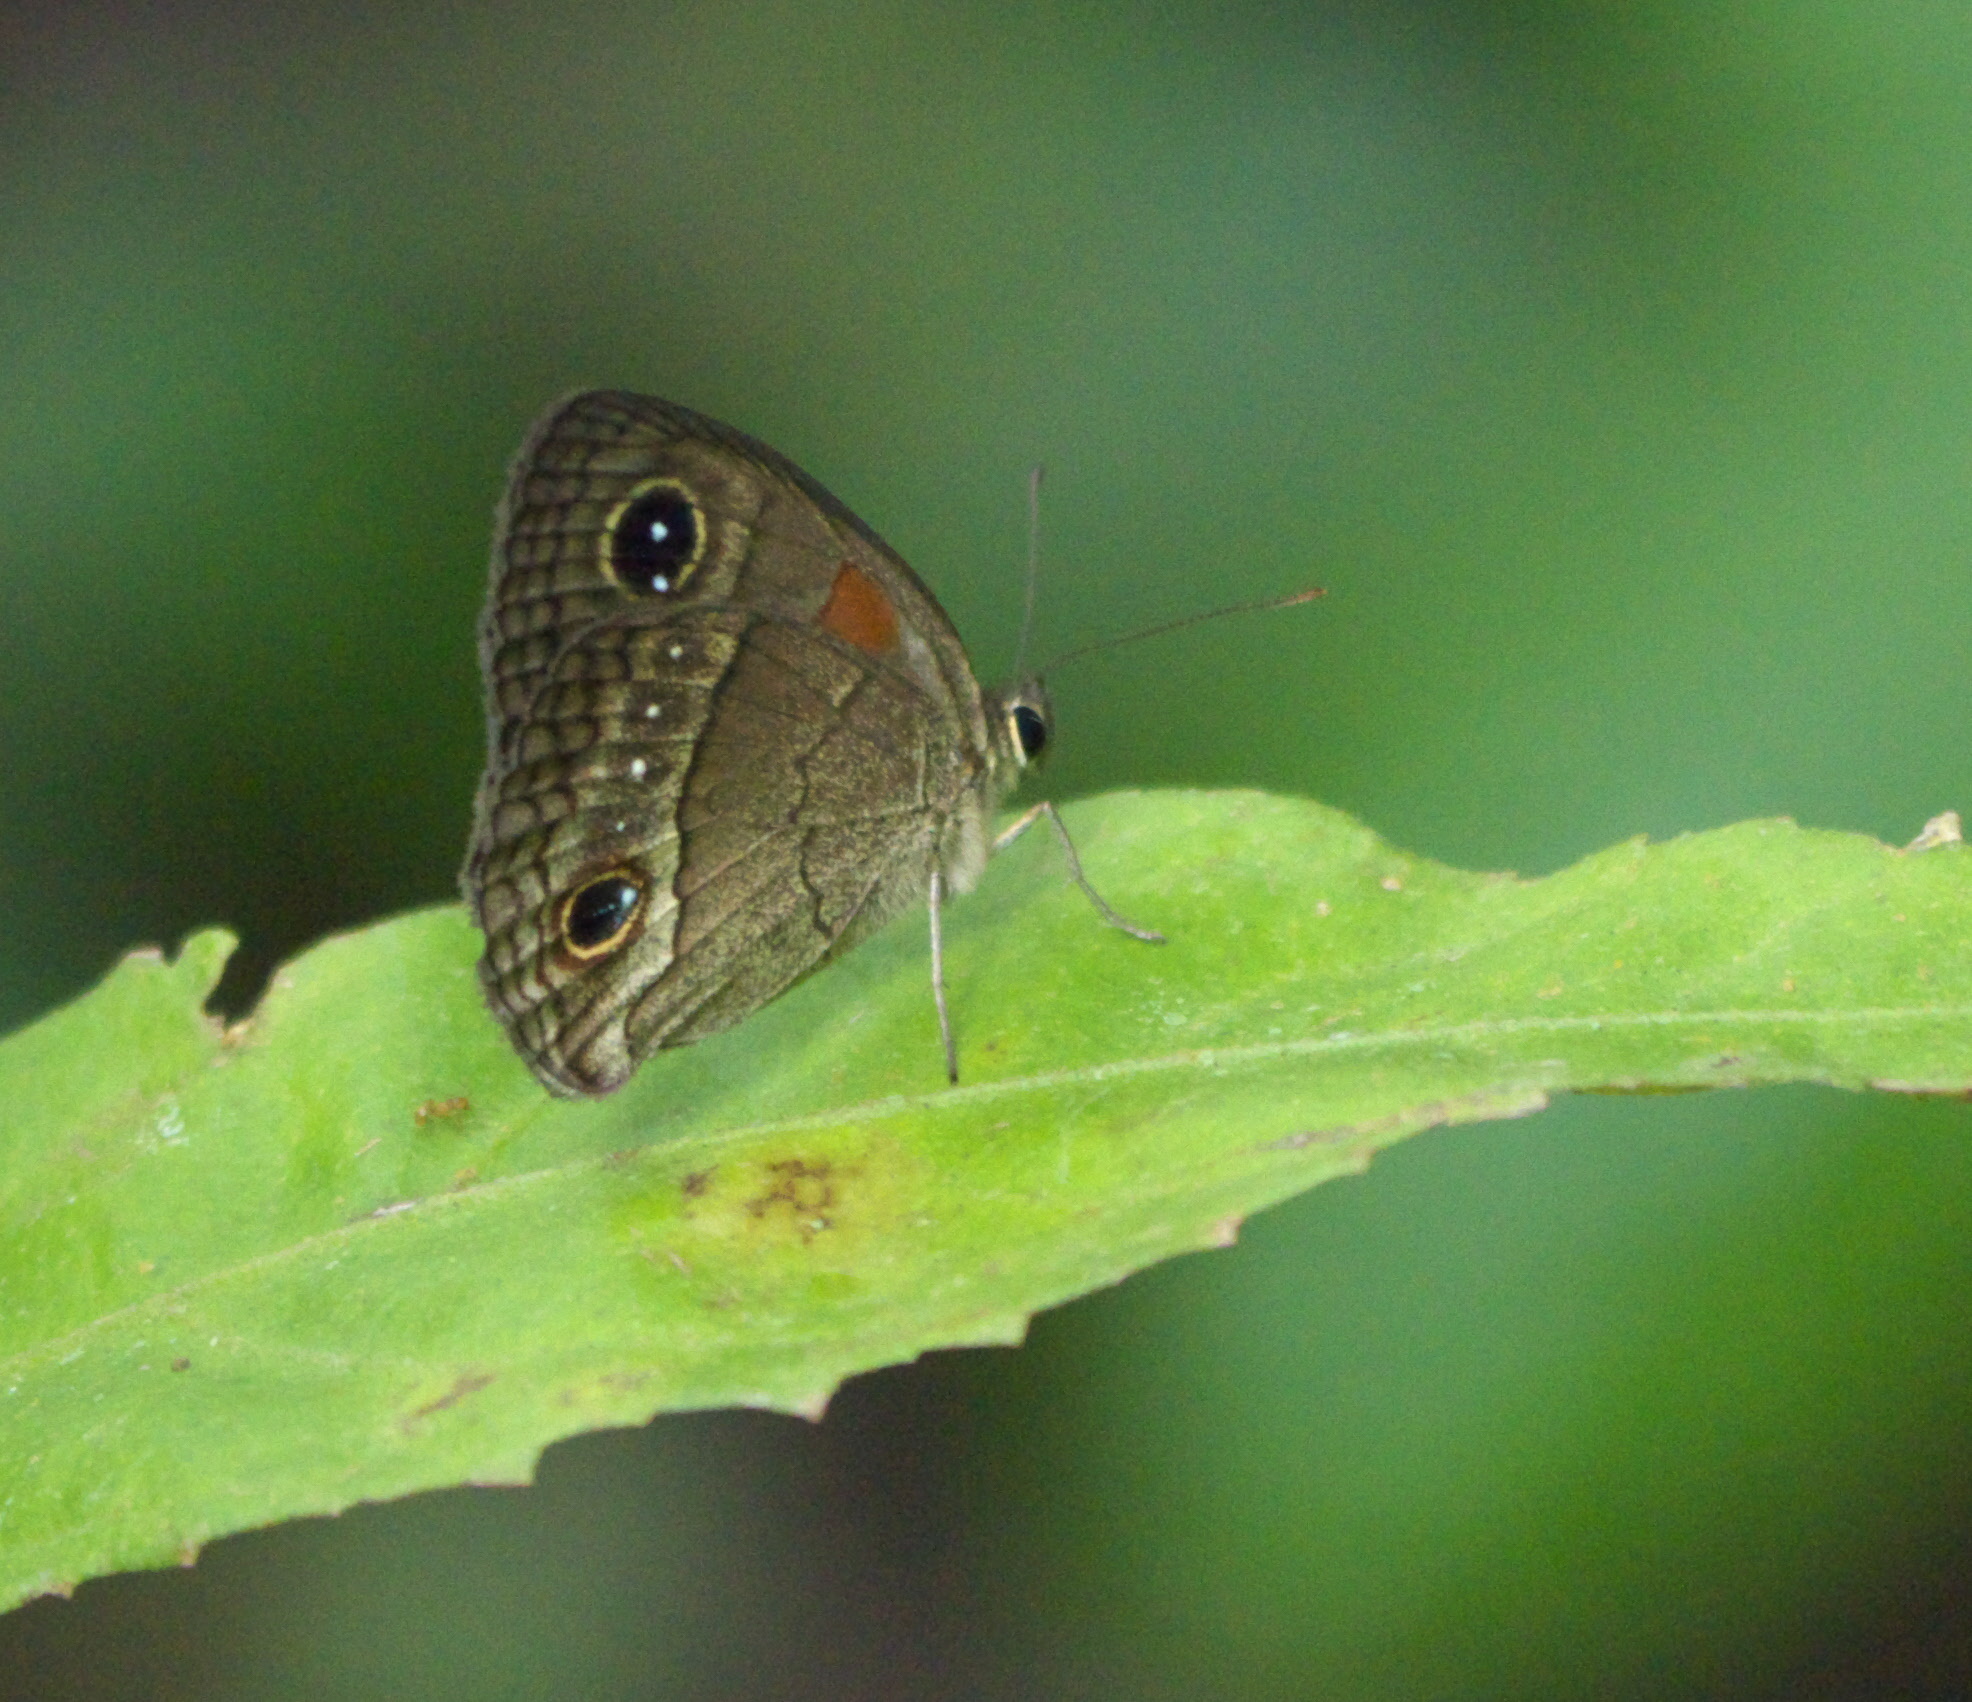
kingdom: Animalia
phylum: Arthropoda
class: Insecta
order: Lepidoptera
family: Nymphalidae
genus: Calisto
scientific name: Calisto herophile
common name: Cuban calisto
